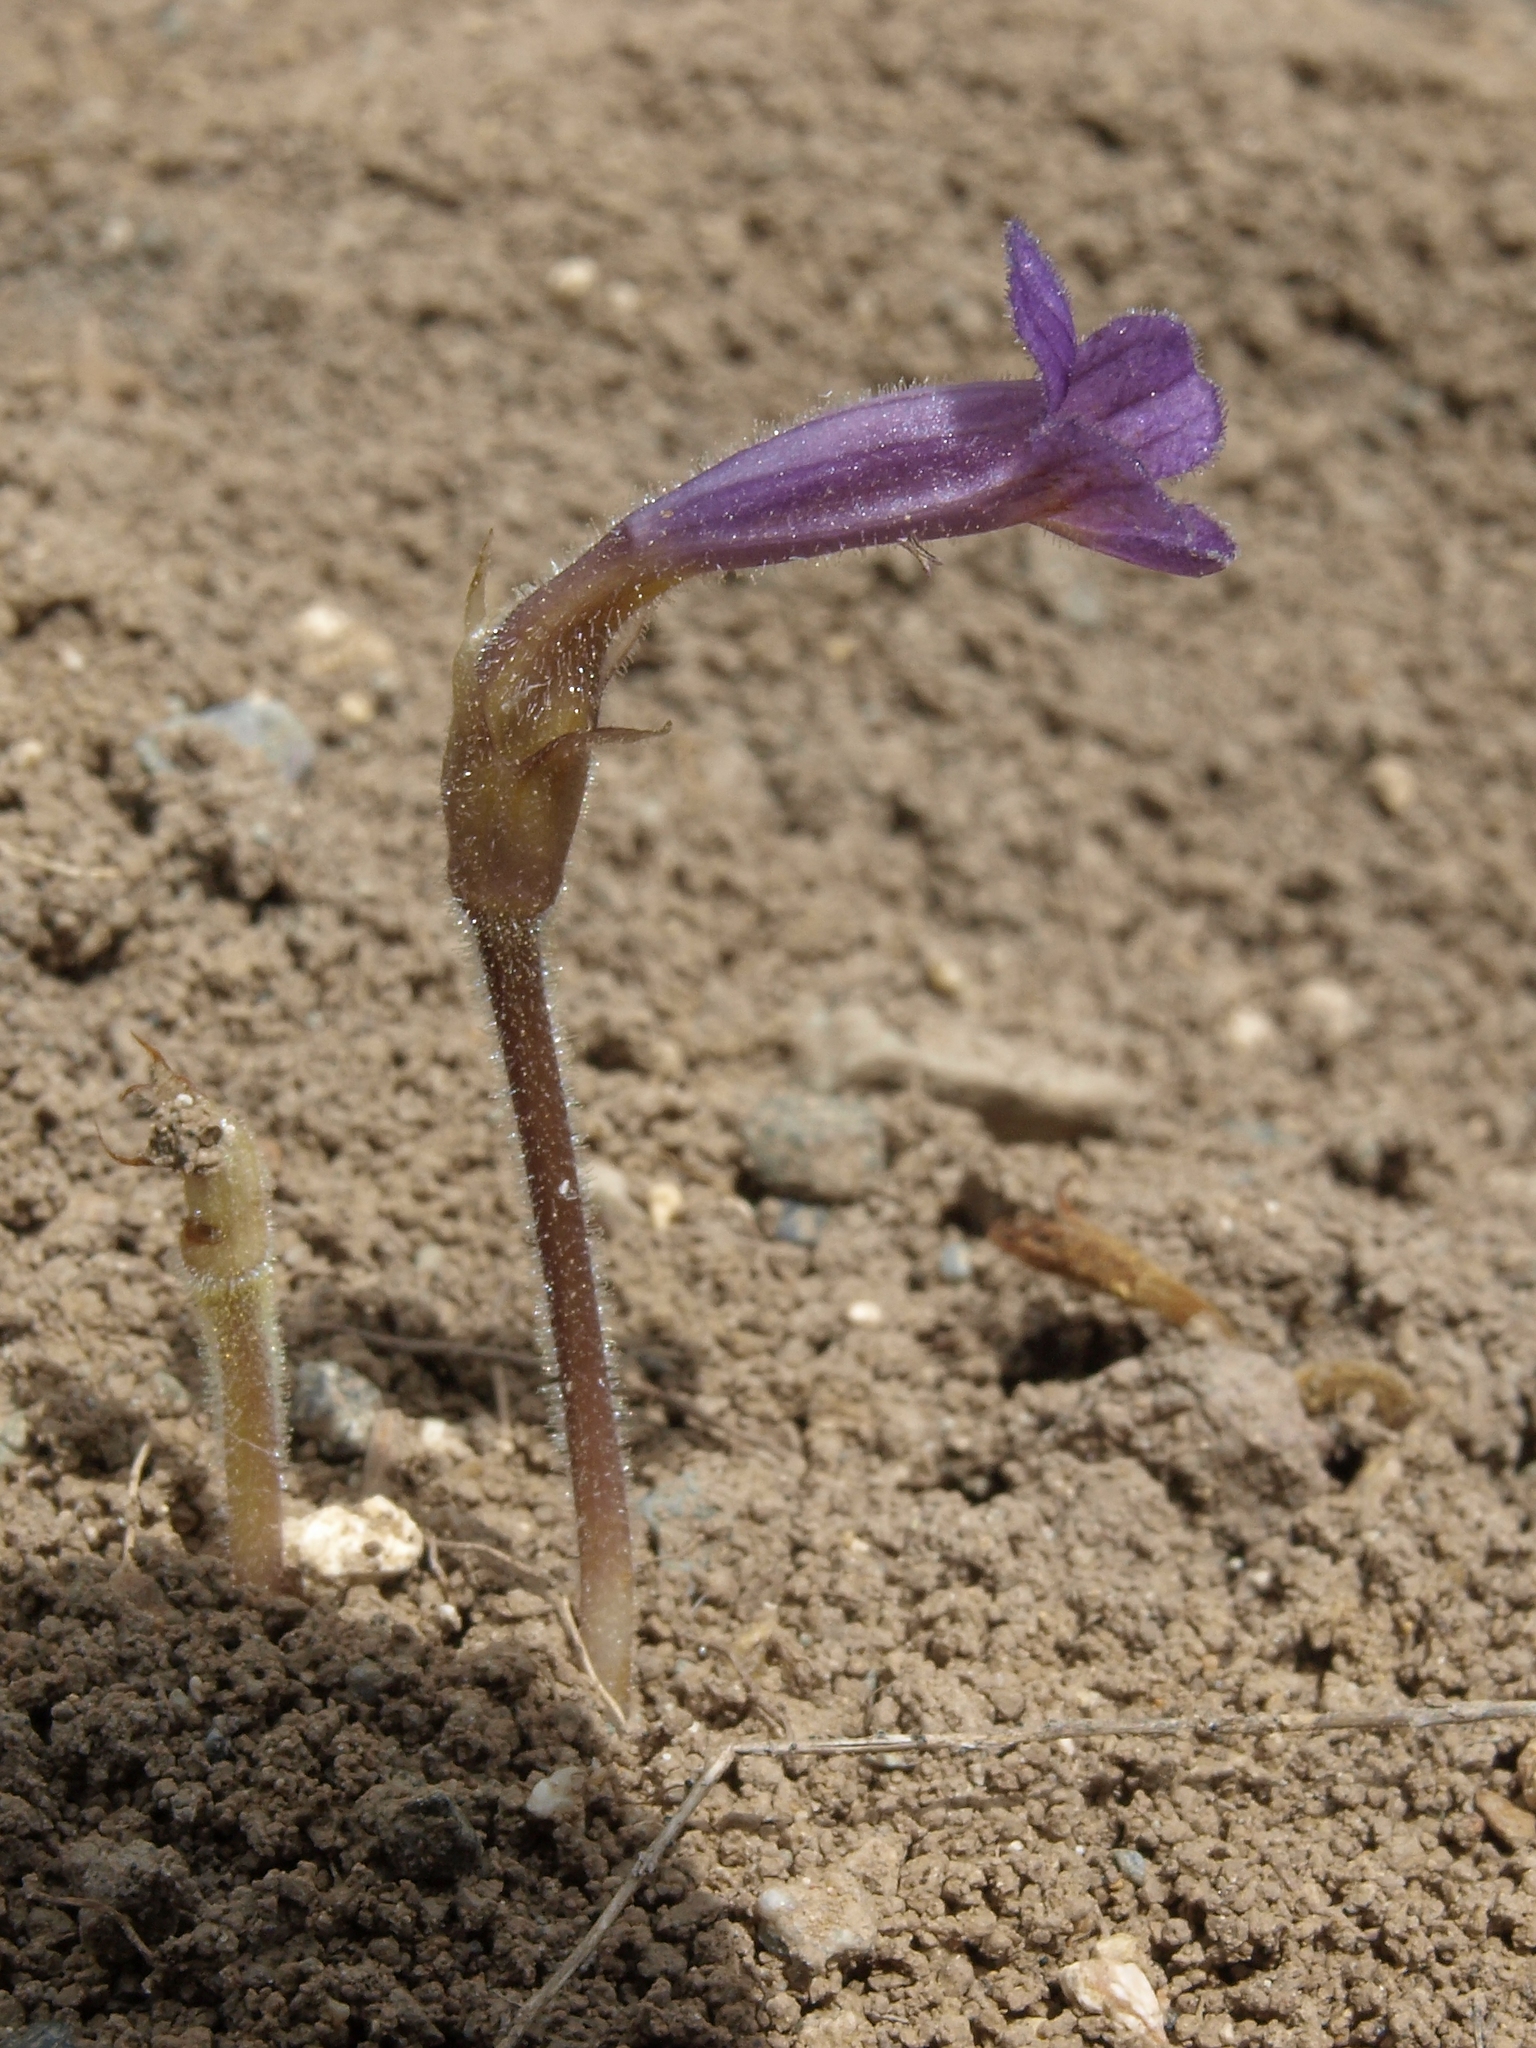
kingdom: Plantae
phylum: Tracheophyta
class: Magnoliopsida
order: Lamiales
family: Orobanchaceae
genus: Aphyllon
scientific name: Aphyllon uniflorum
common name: One-flowered broomrape
